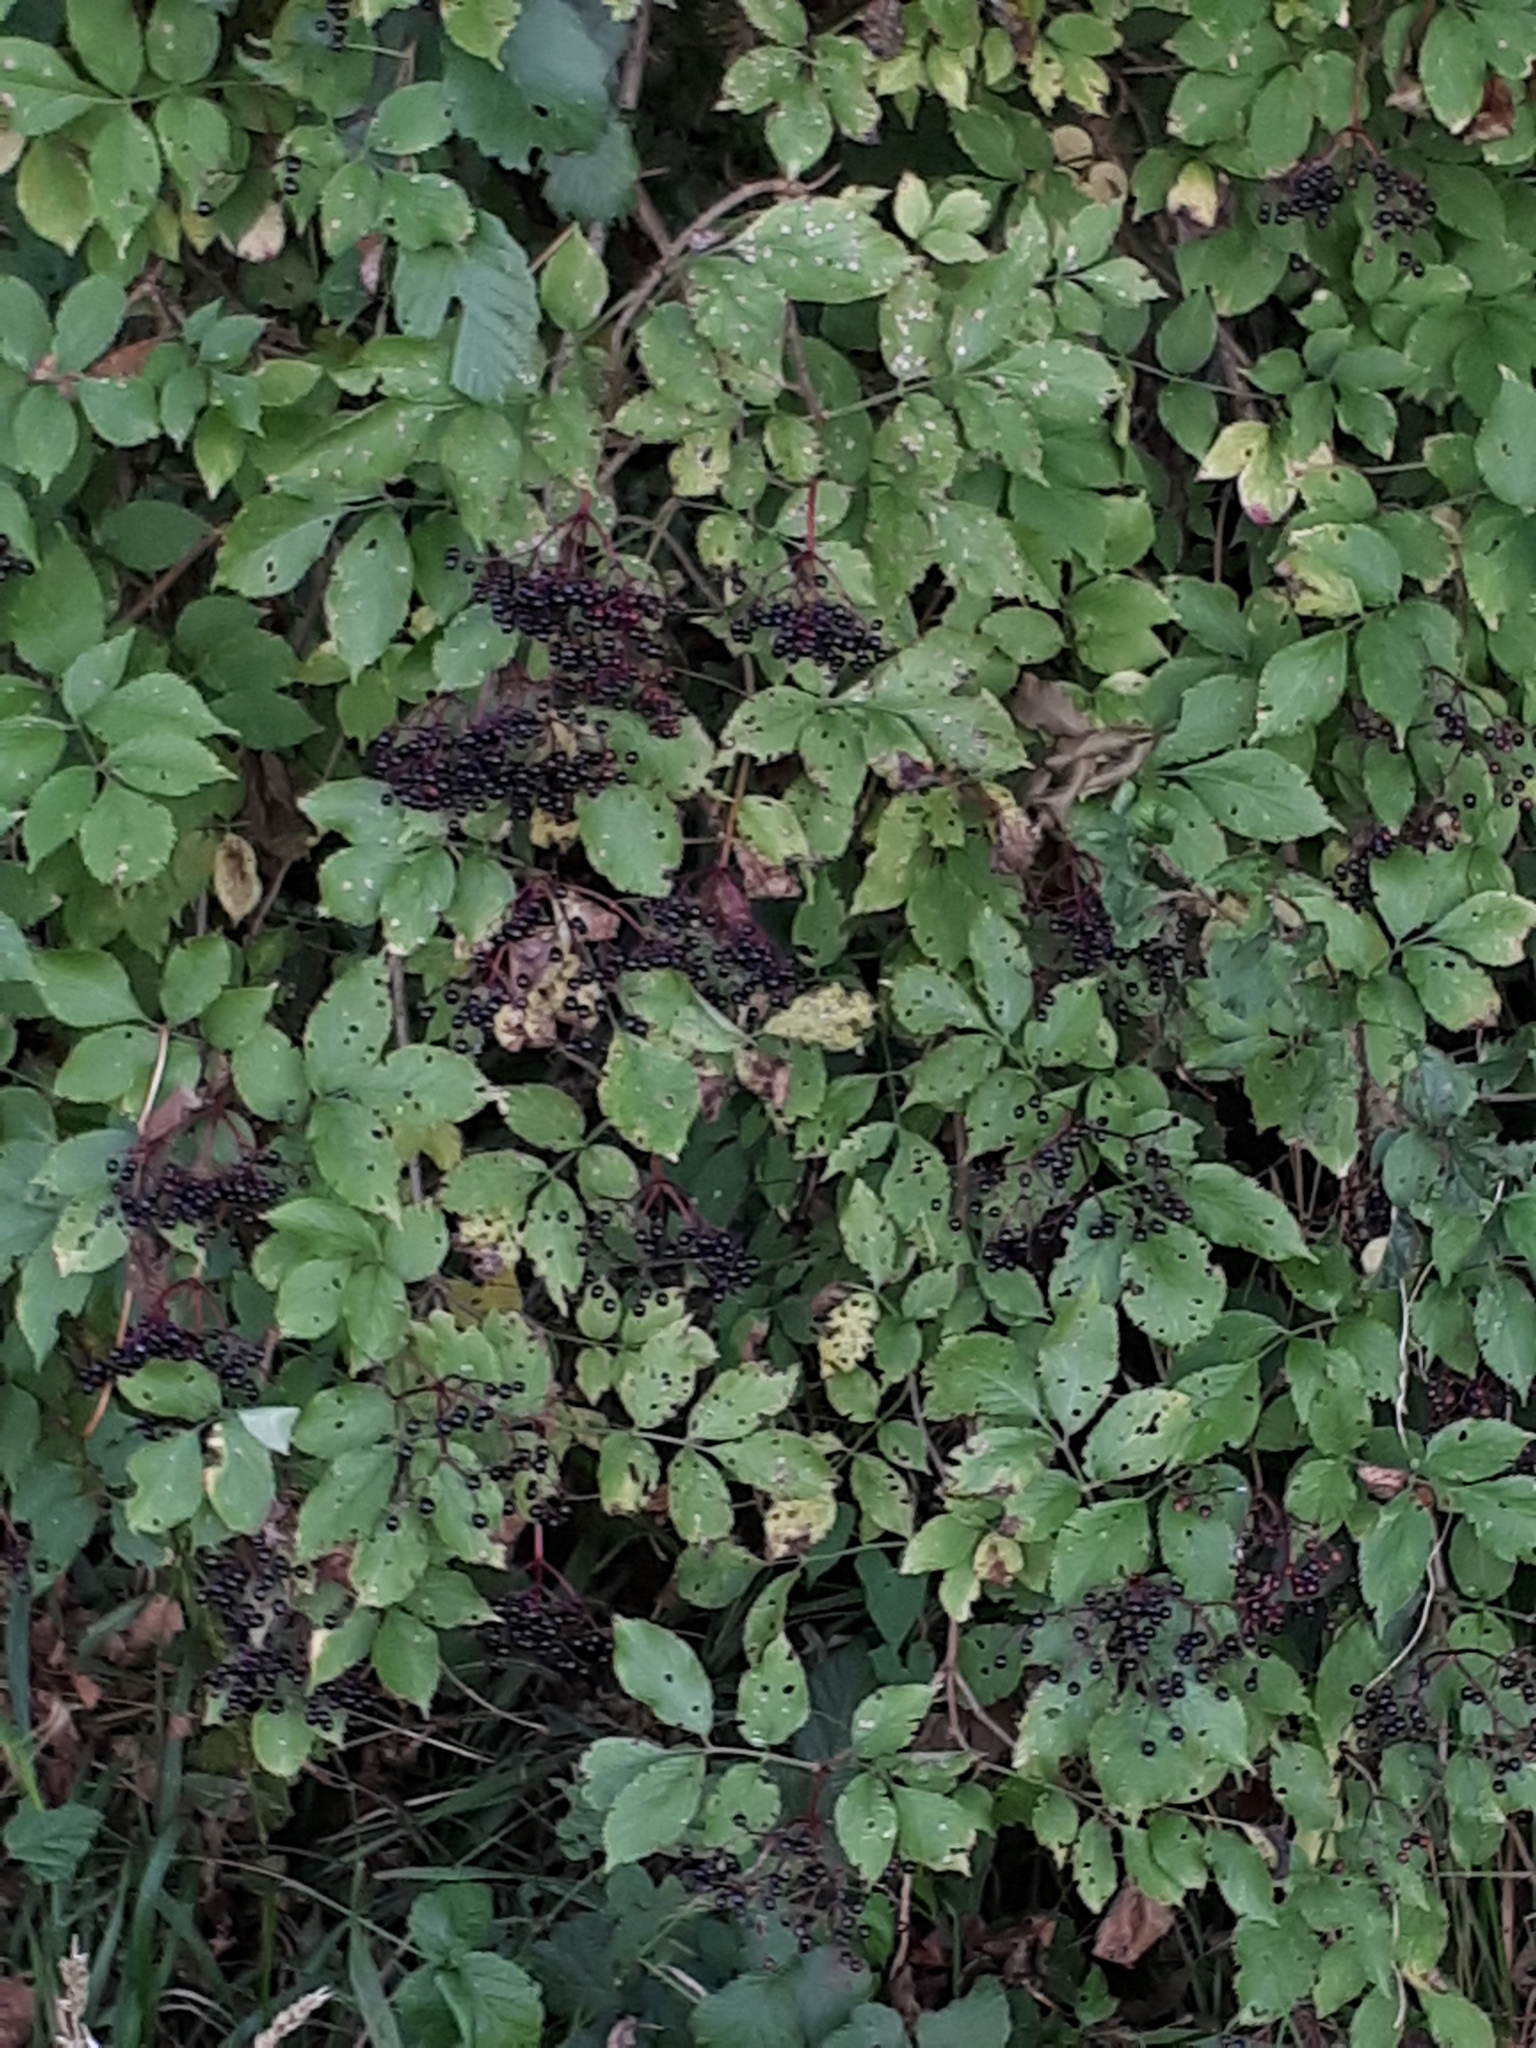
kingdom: Plantae
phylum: Tracheophyta
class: Magnoliopsida
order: Dipsacales
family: Viburnaceae
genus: Sambucus
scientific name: Sambucus nigra
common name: Elder
